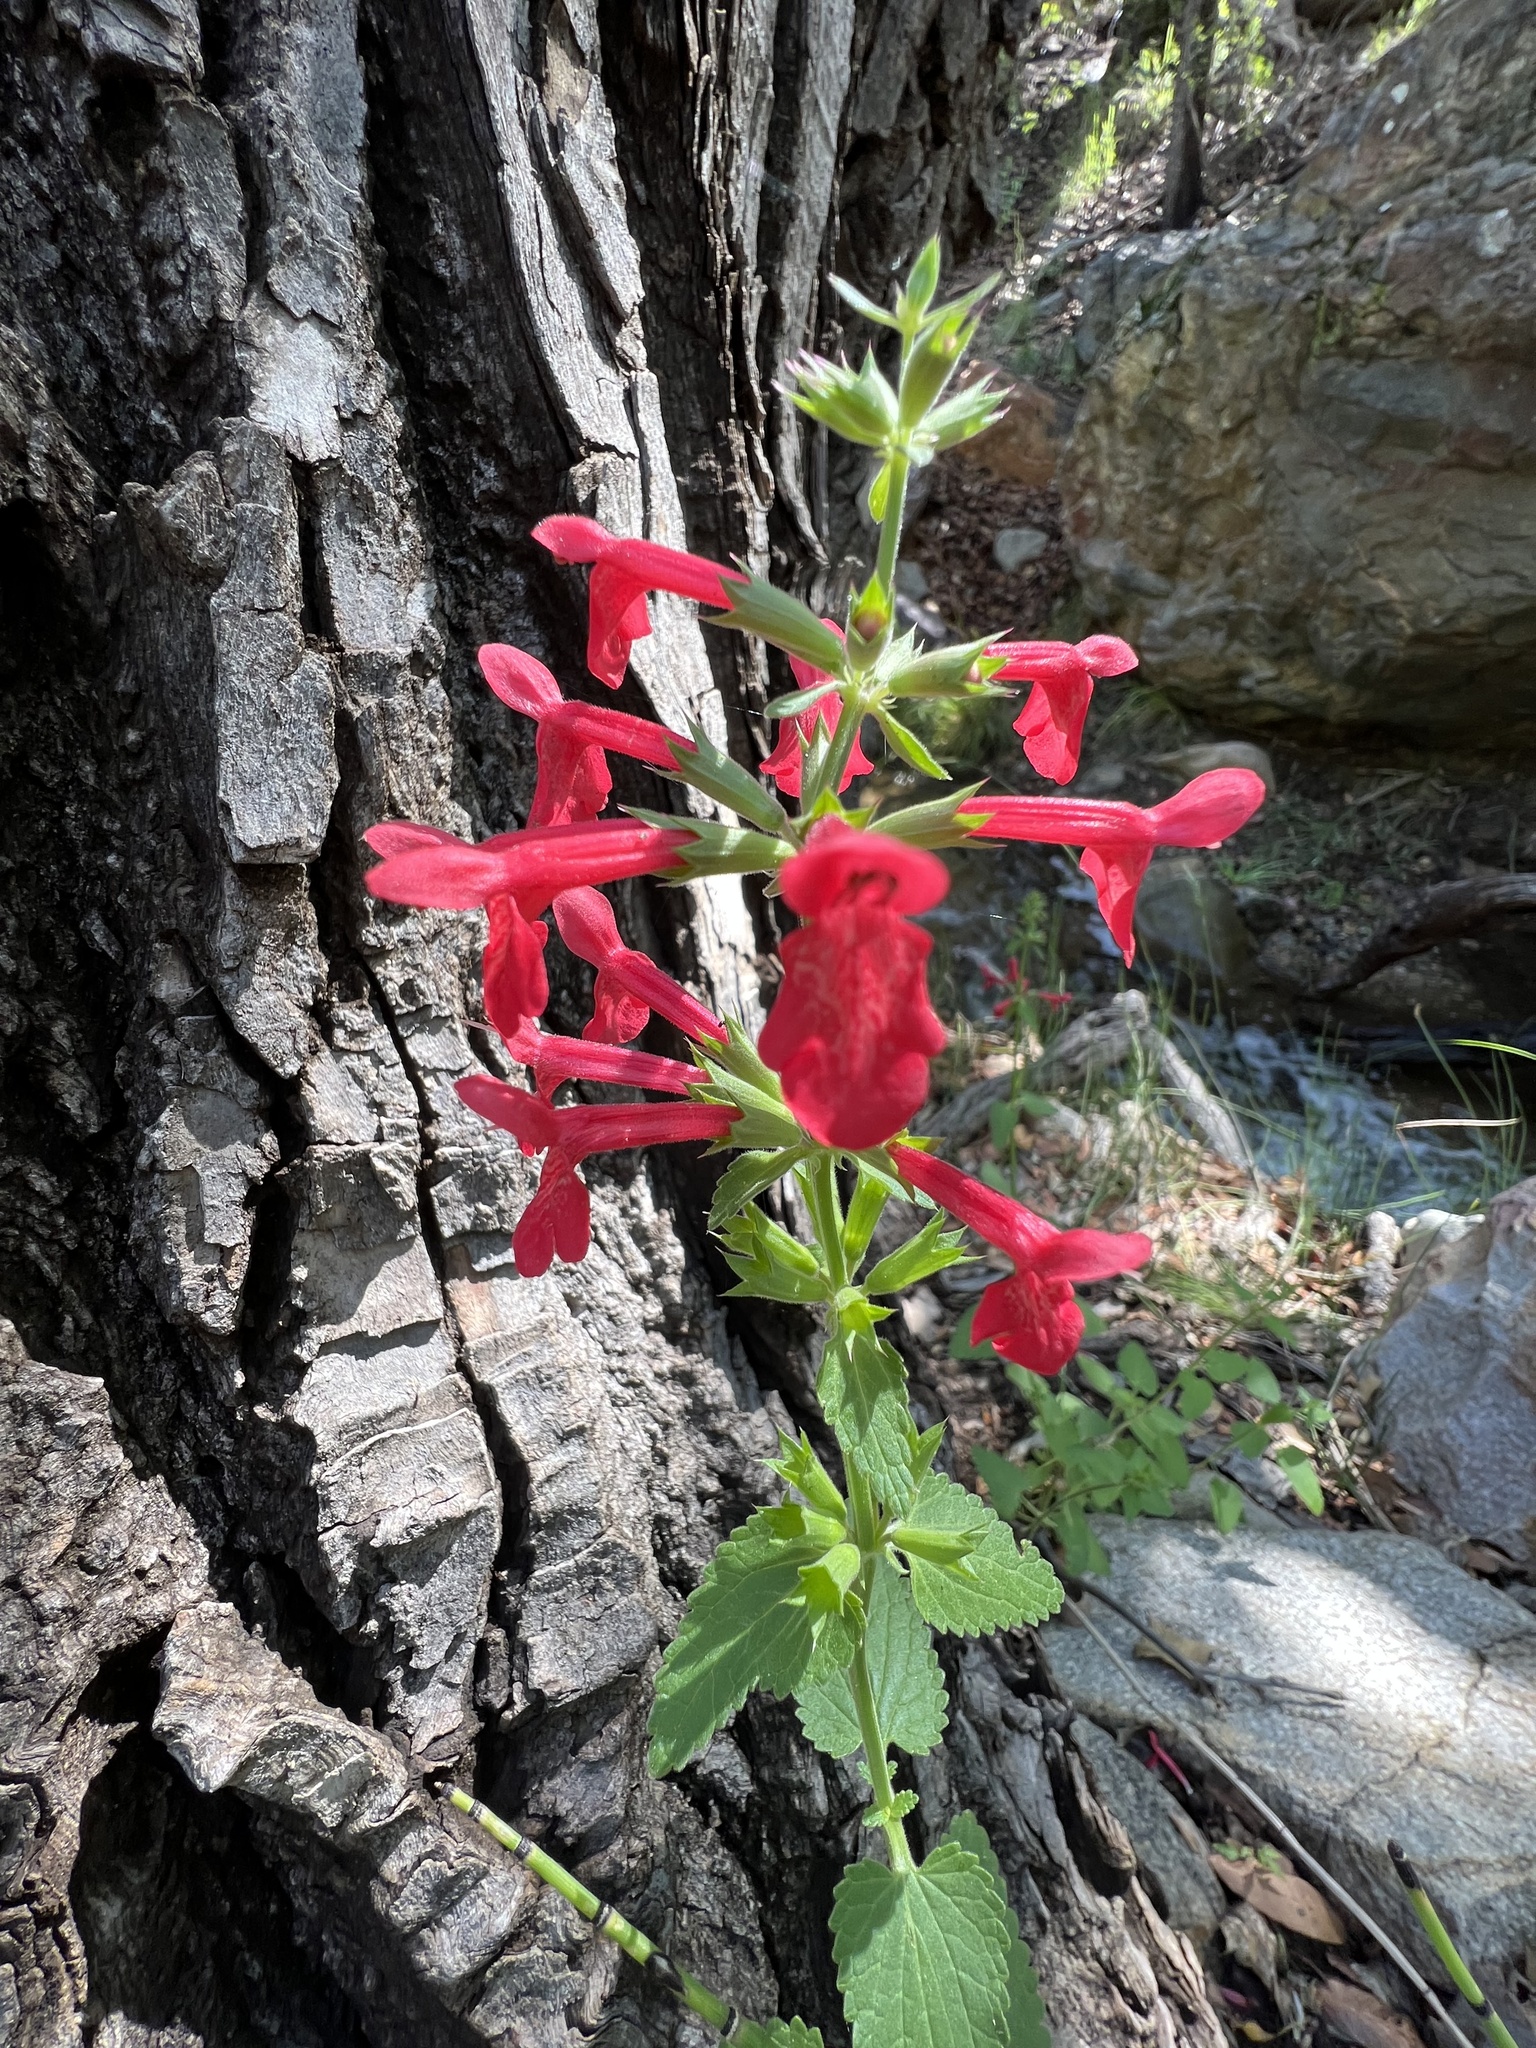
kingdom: Plantae
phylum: Tracheophyta
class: Magnoliopsida
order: Lamiales
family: Lamiaceae
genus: Stachys
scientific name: Stachys coccinea
